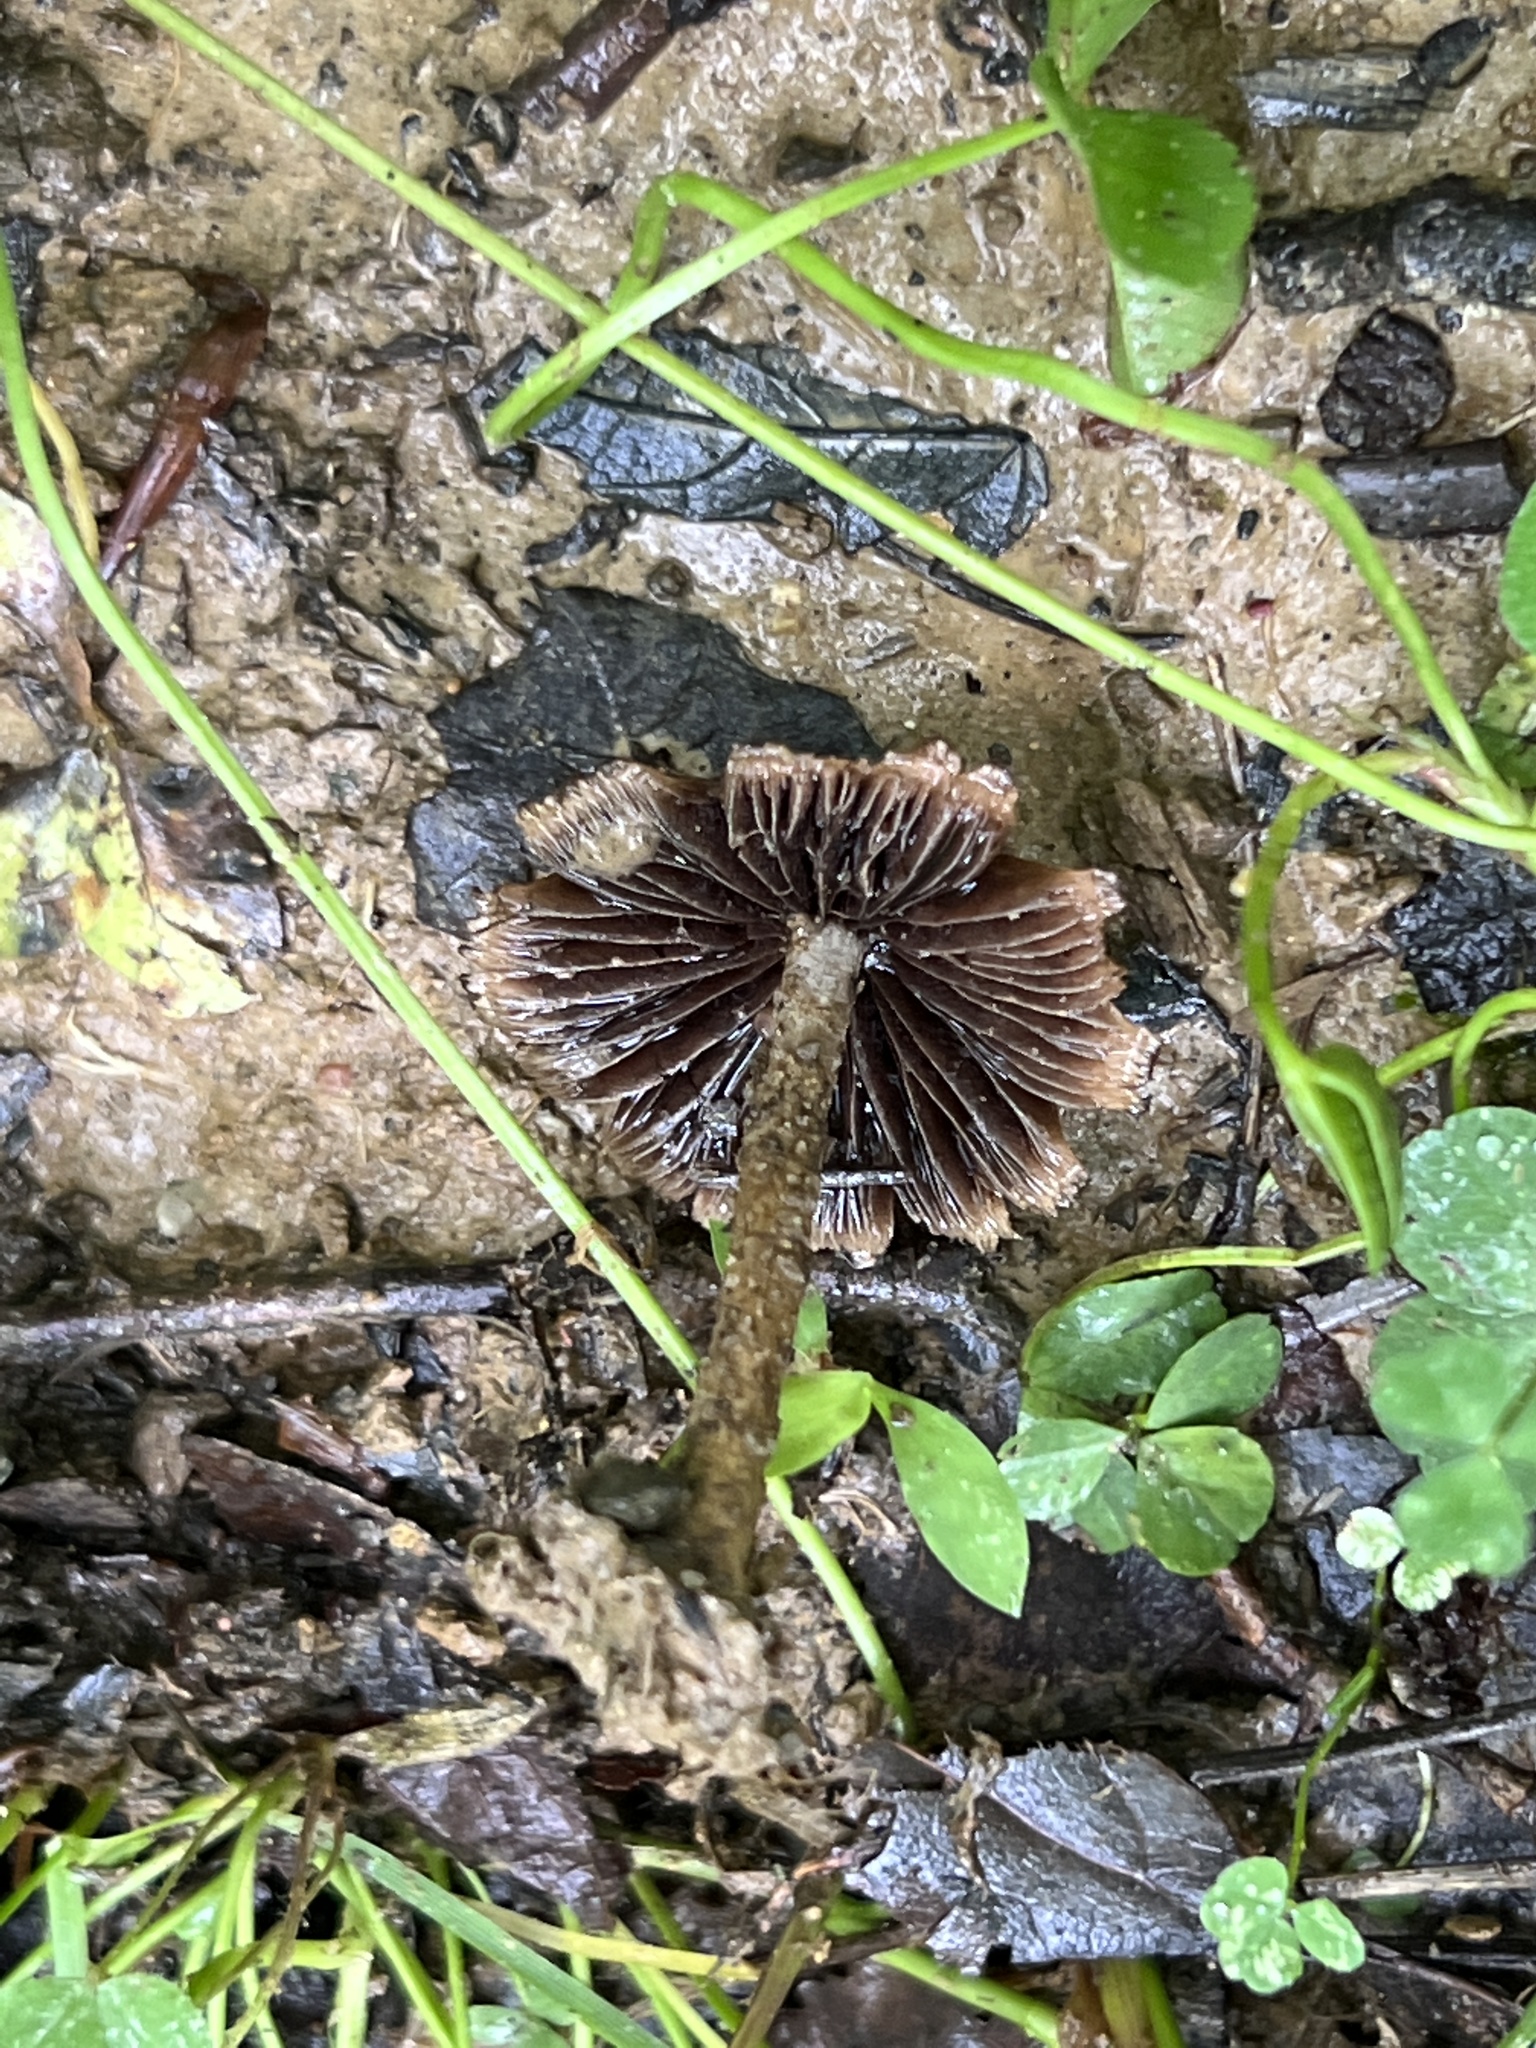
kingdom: Fungi
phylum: Basidiomycota
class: Agaricomycetes
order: Agaricales
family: Psathyrellaceae
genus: Lacrymaria
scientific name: Lacrymaria lacrymabunda
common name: Weeping widow
